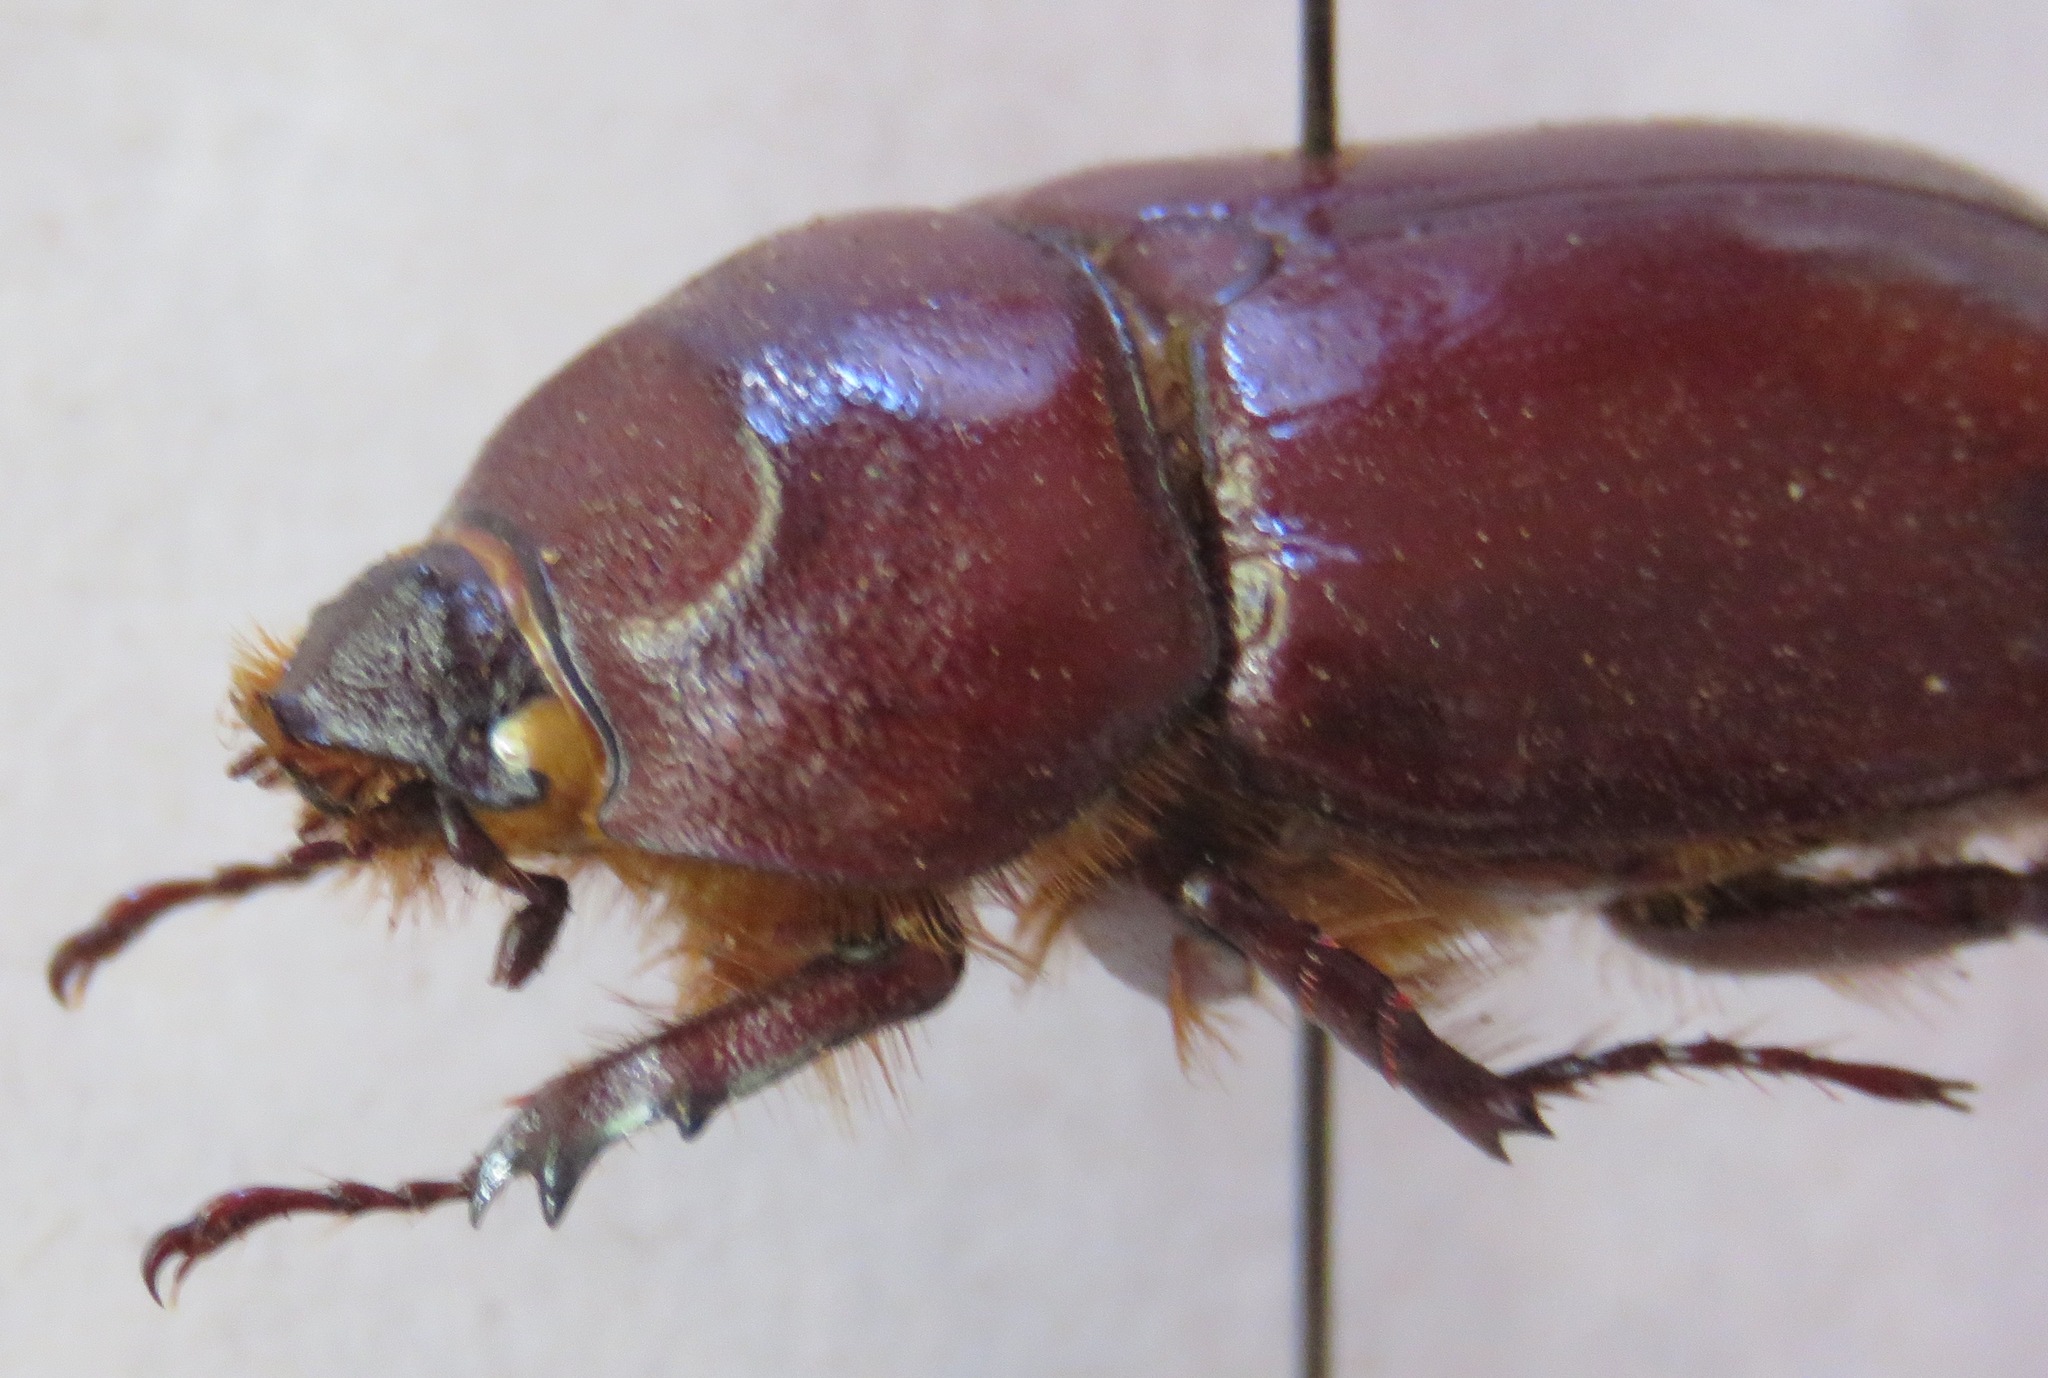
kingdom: Animalia
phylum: Arthropoda
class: Insecta
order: Coleoptera
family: Scarabaeidae
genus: Oryctes
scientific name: Oryctes nasicornis
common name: European rhinoceros beetle
